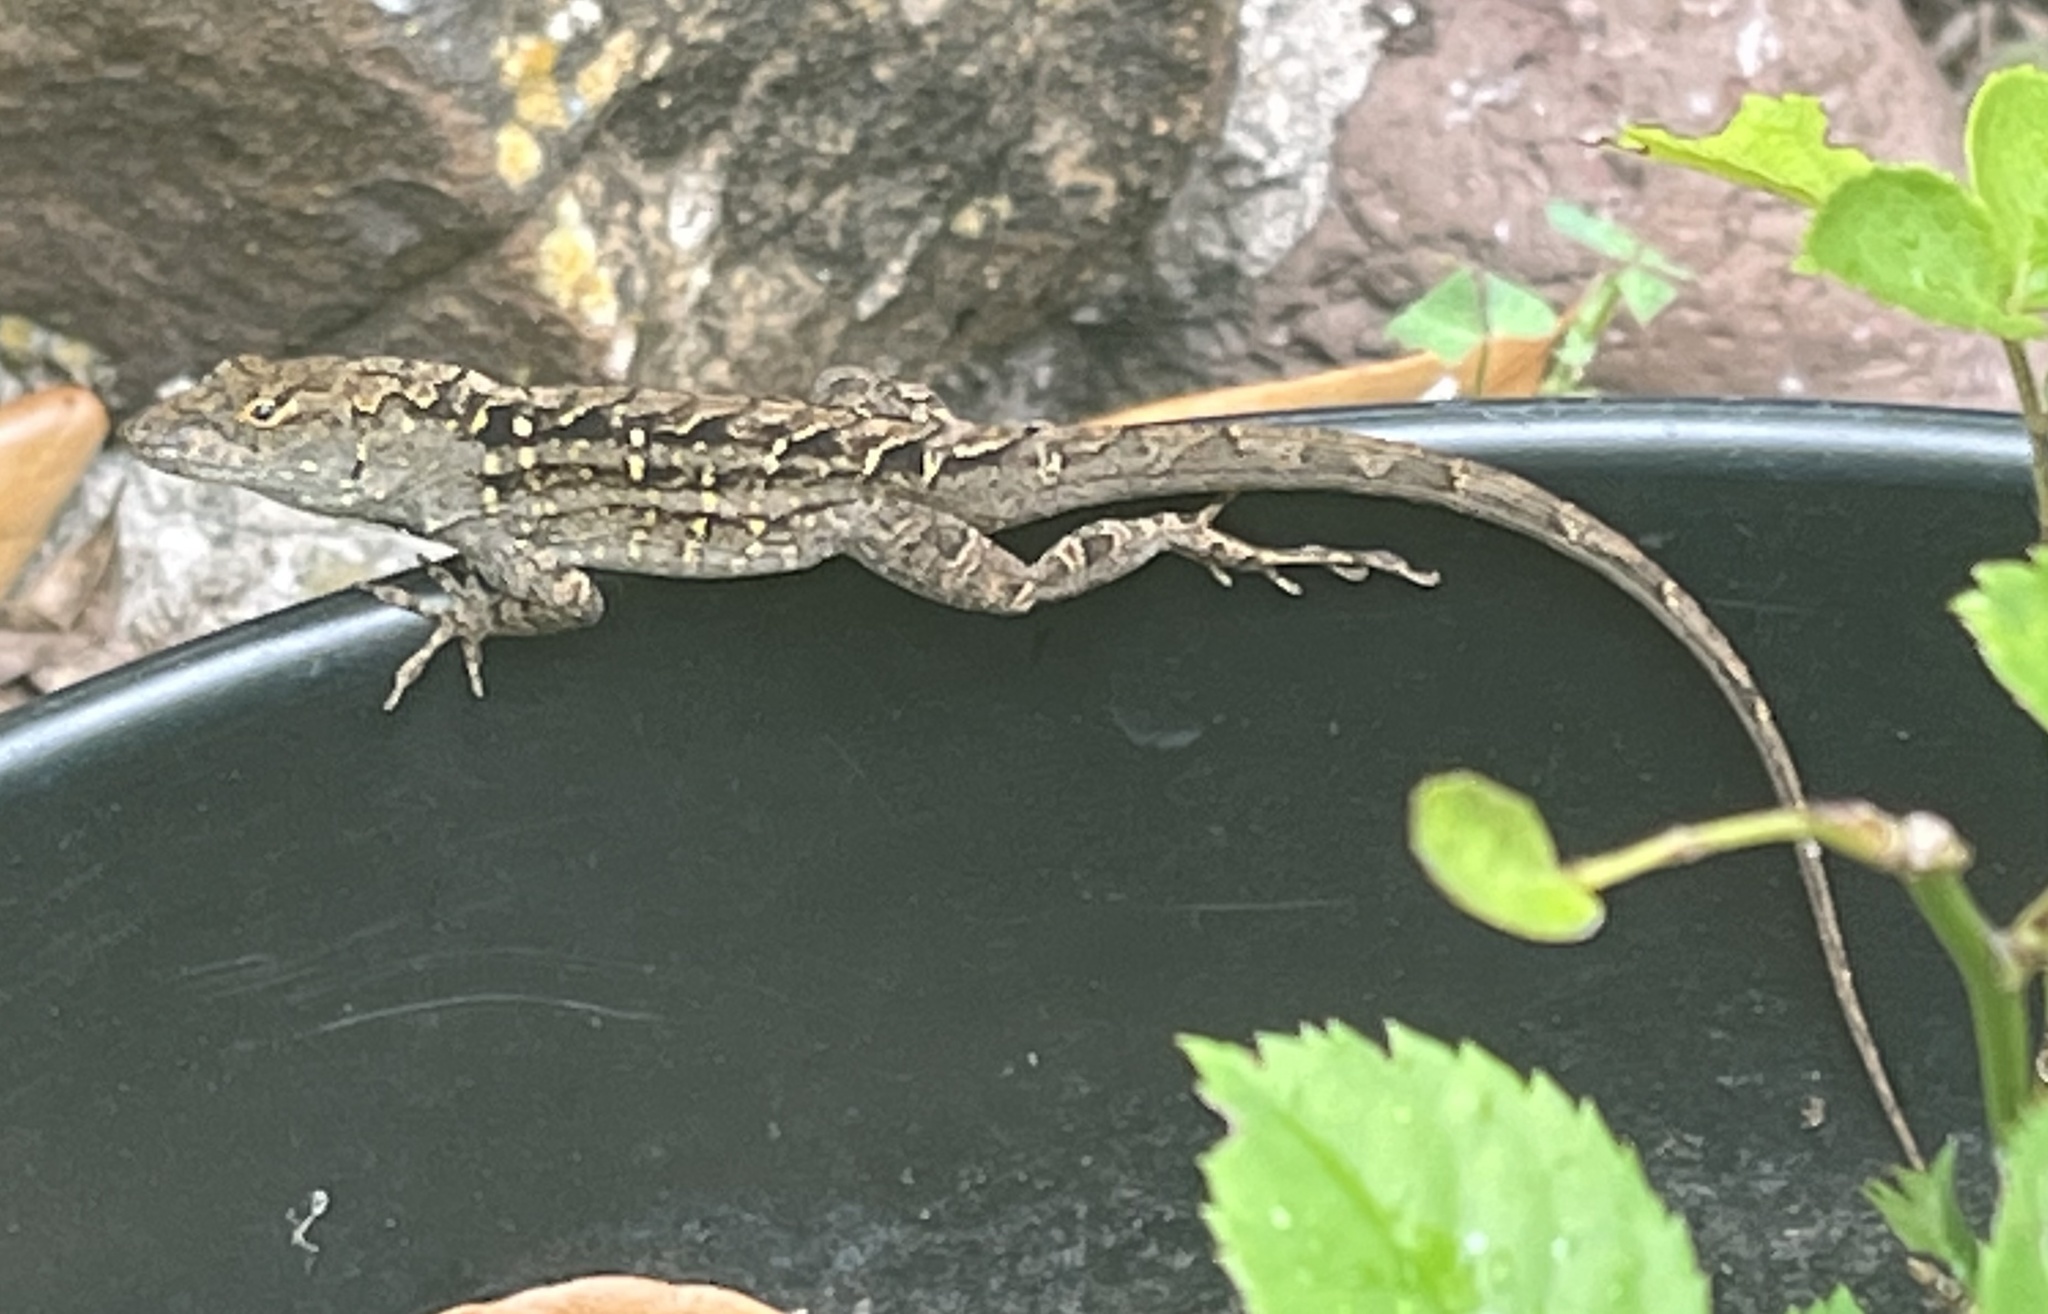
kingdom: Animalia
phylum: Chordata
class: Squamata
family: Dactyloidae
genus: Anolis
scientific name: Anolis sagrei
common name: Brown anole
